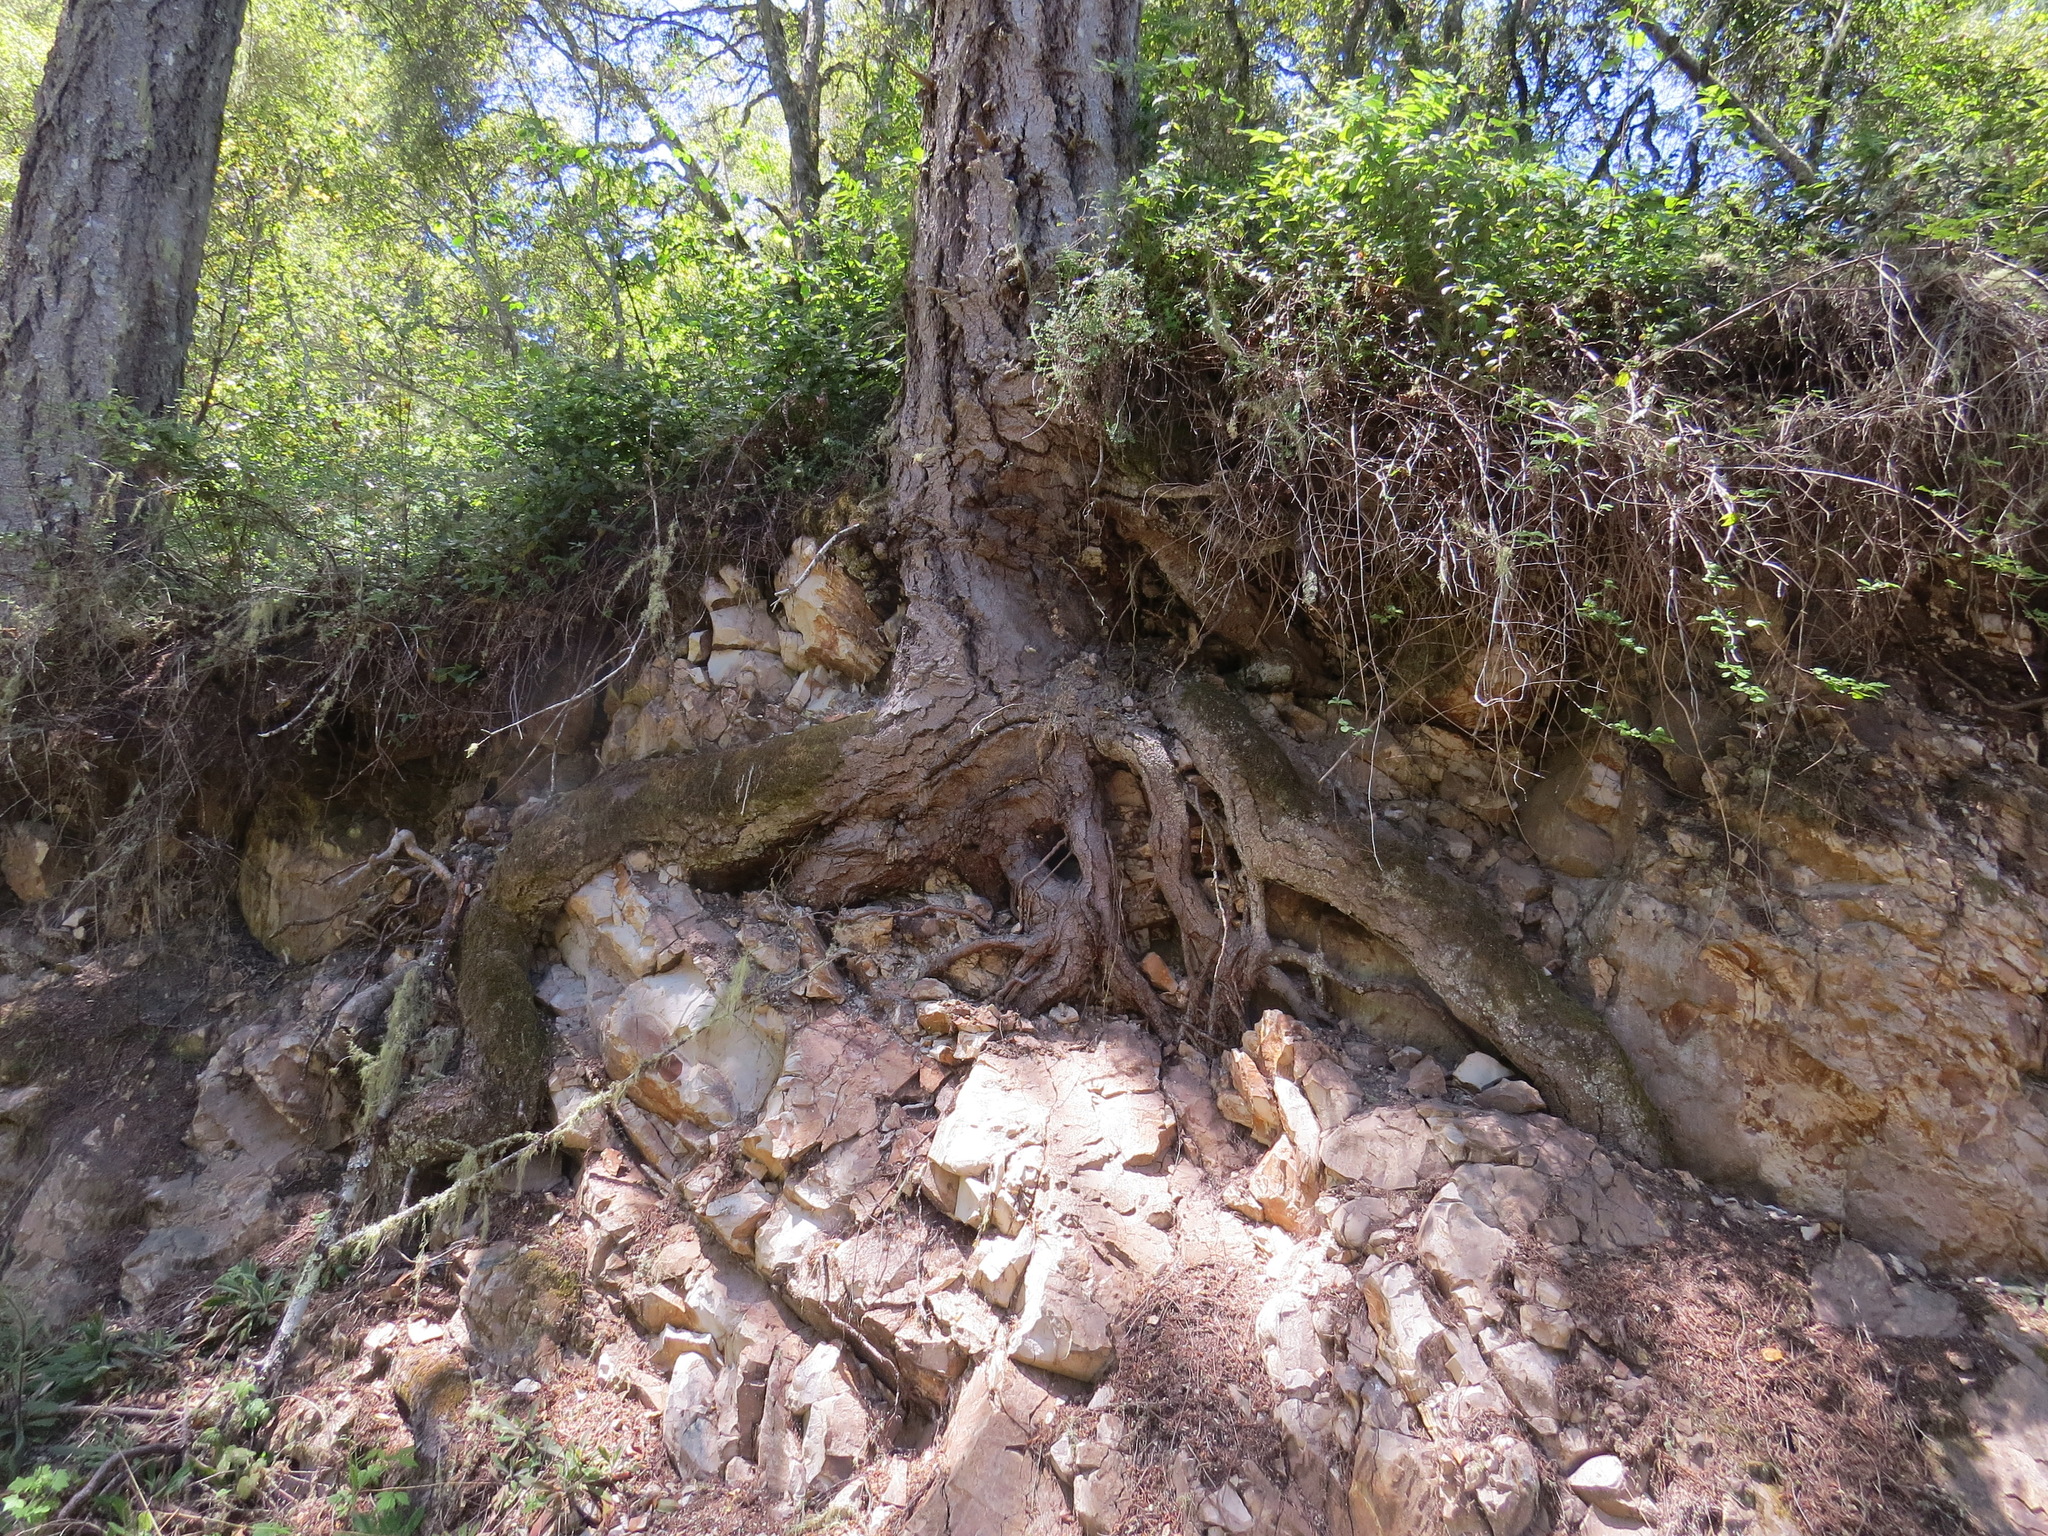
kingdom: Plantae
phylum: Tracheophyta
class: Pinopsida
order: Pinales
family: Pinaceae
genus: Pseudotsuga
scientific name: Pseudotsuga menziesii
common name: Douglas fir
